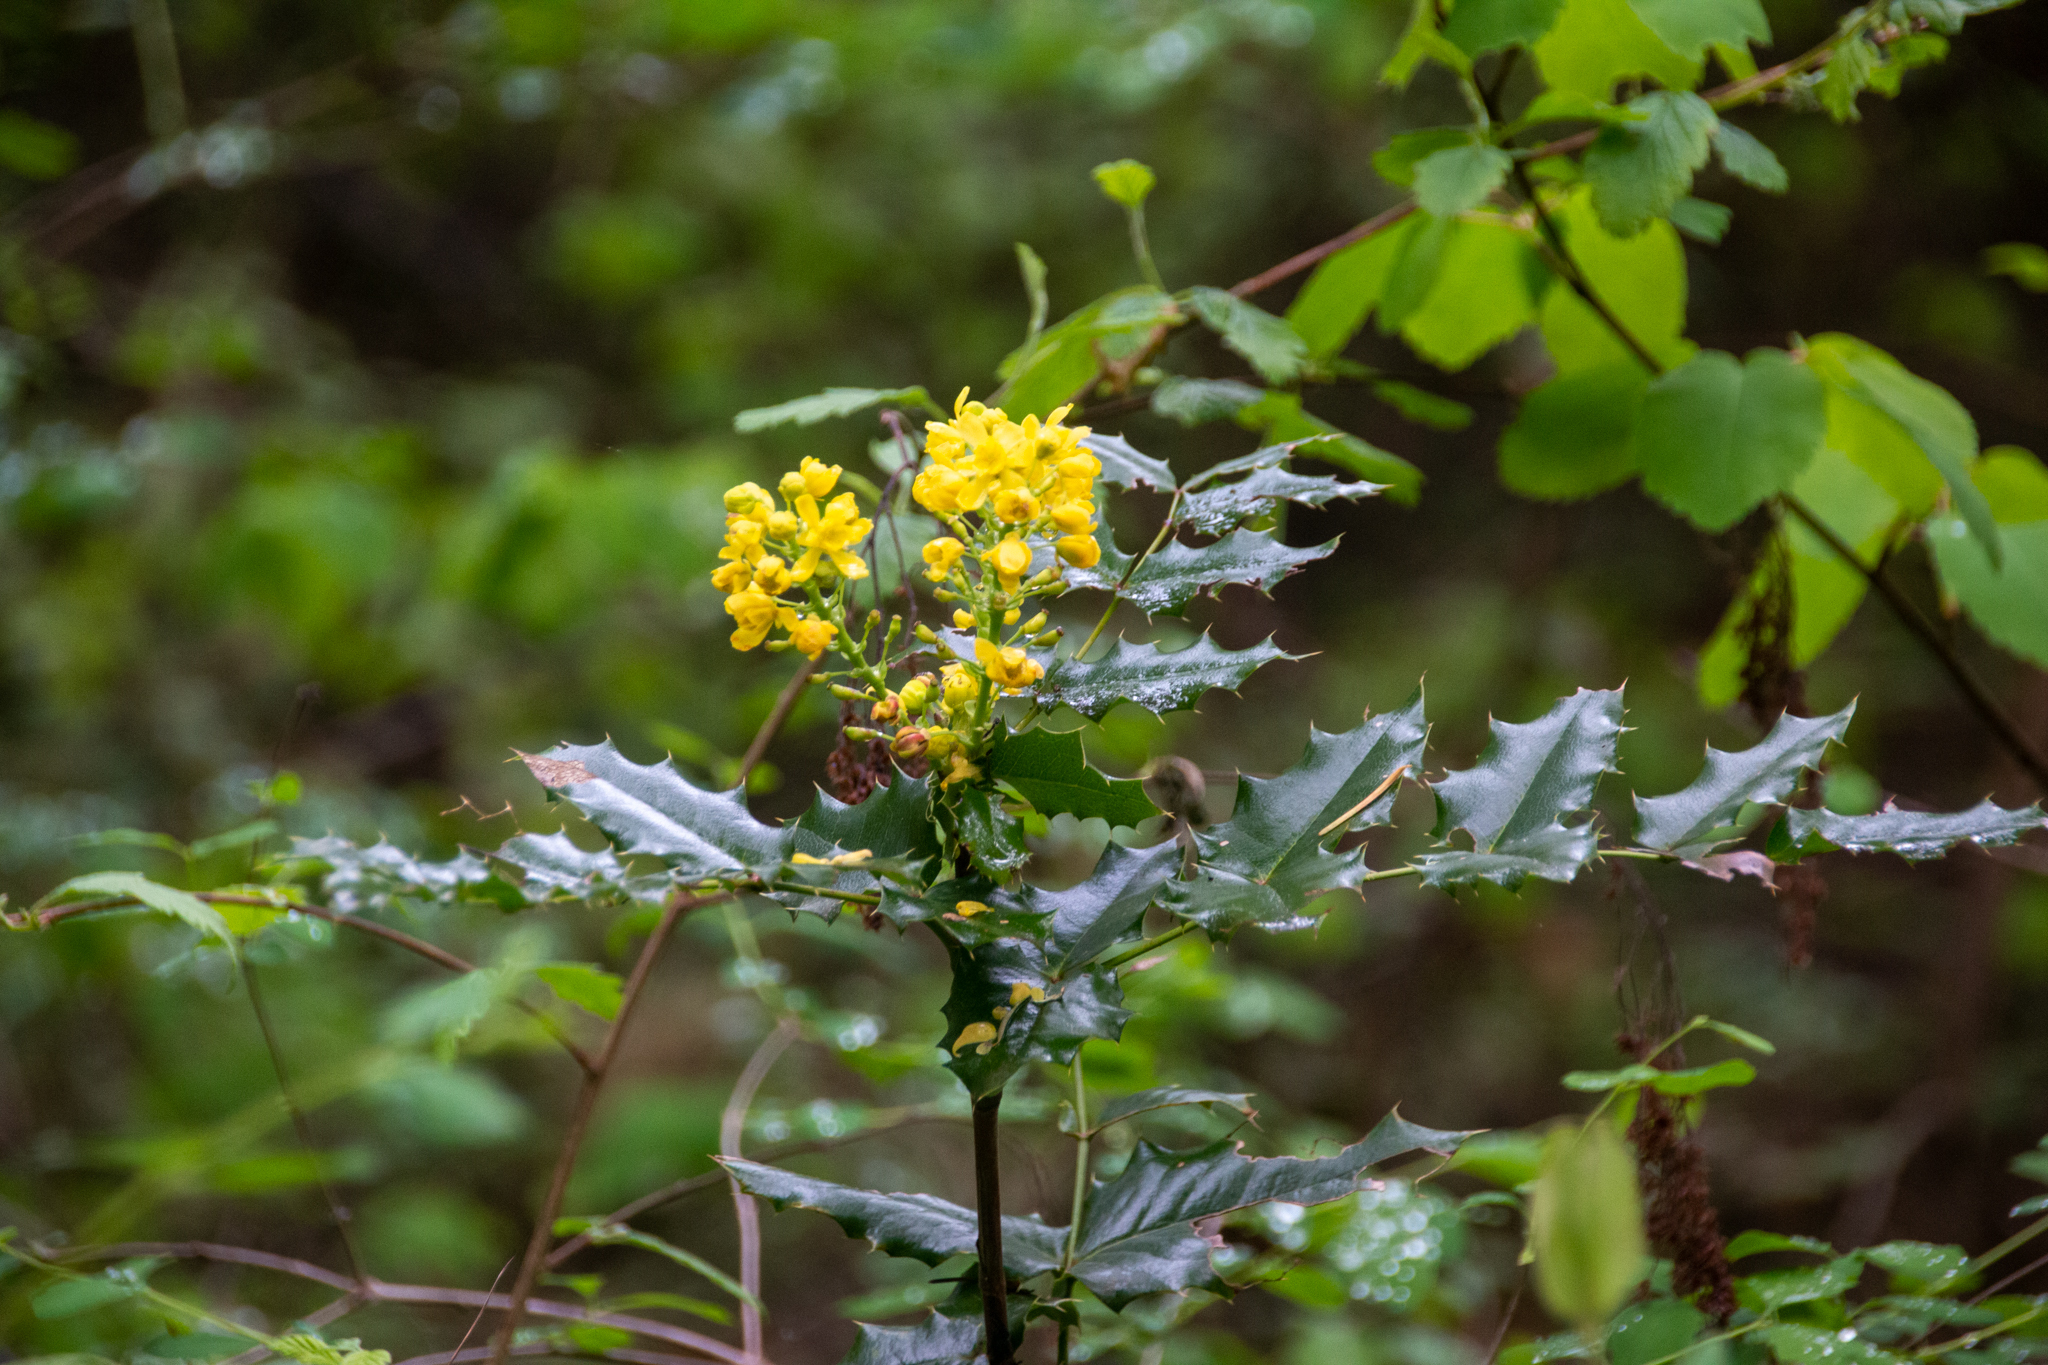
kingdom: Plantae
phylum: Tracheophyta
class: Magnoliopsida
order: Ranunculales
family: Berberidaceae
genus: Mahonia
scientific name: Mahonia aquifolium
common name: Oregon-grape
